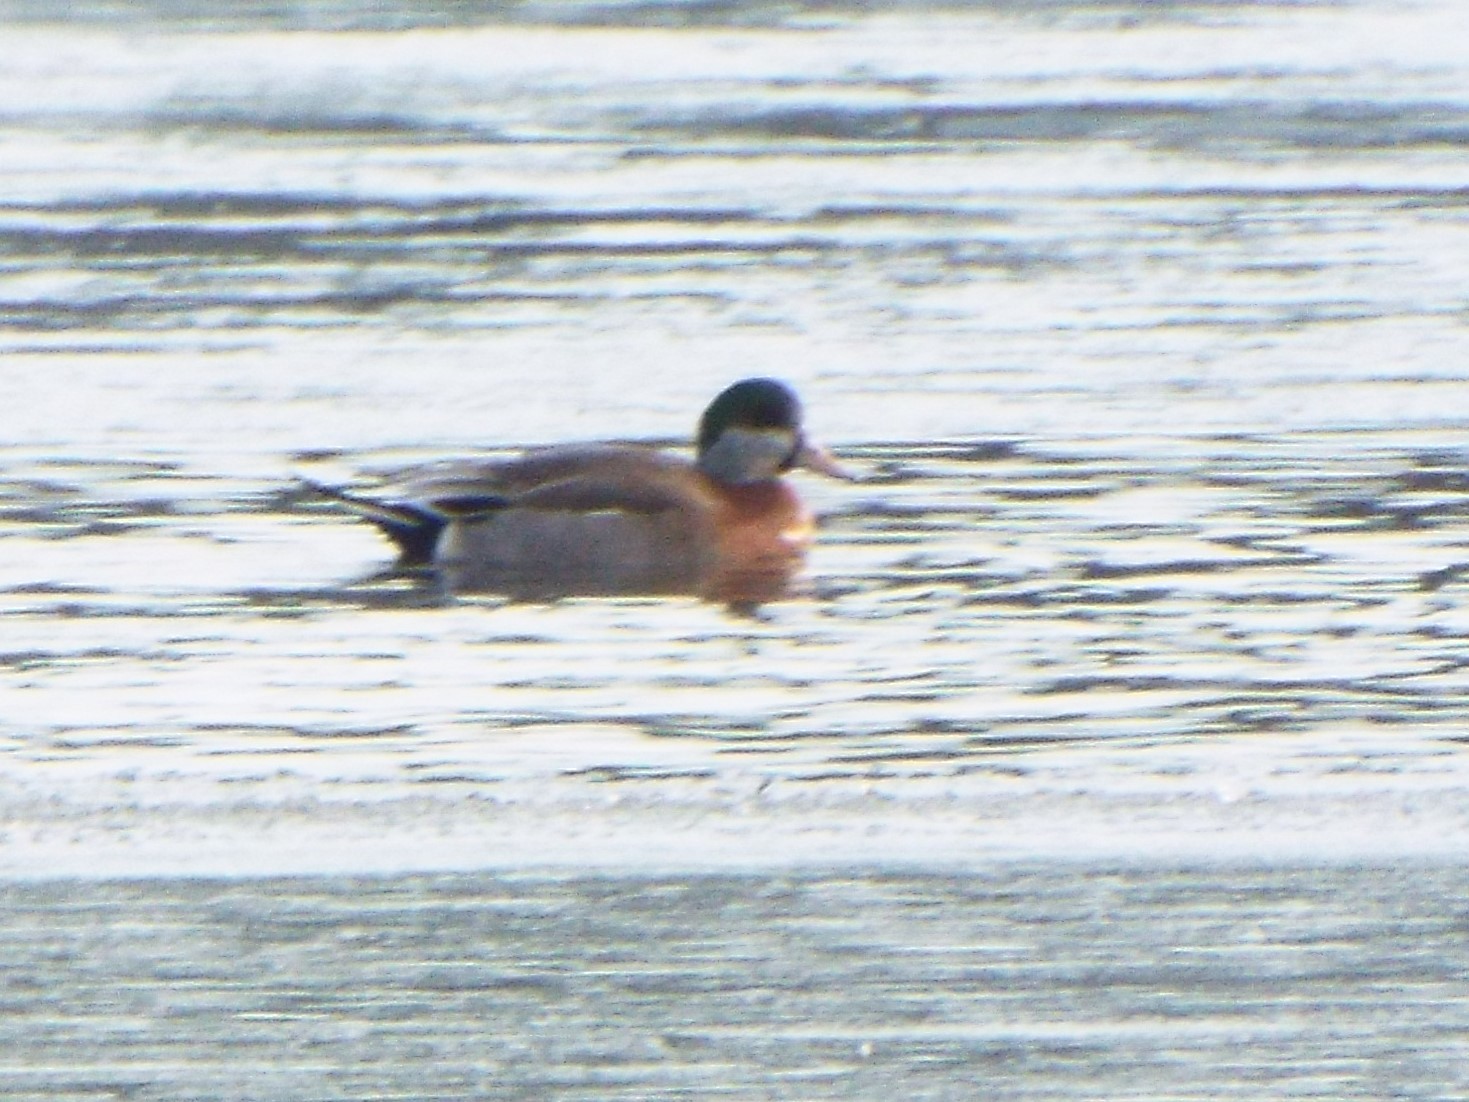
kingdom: Animalia
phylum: Chordata
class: Aves
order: Anseriformes
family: Anatidae
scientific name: Anatidae
